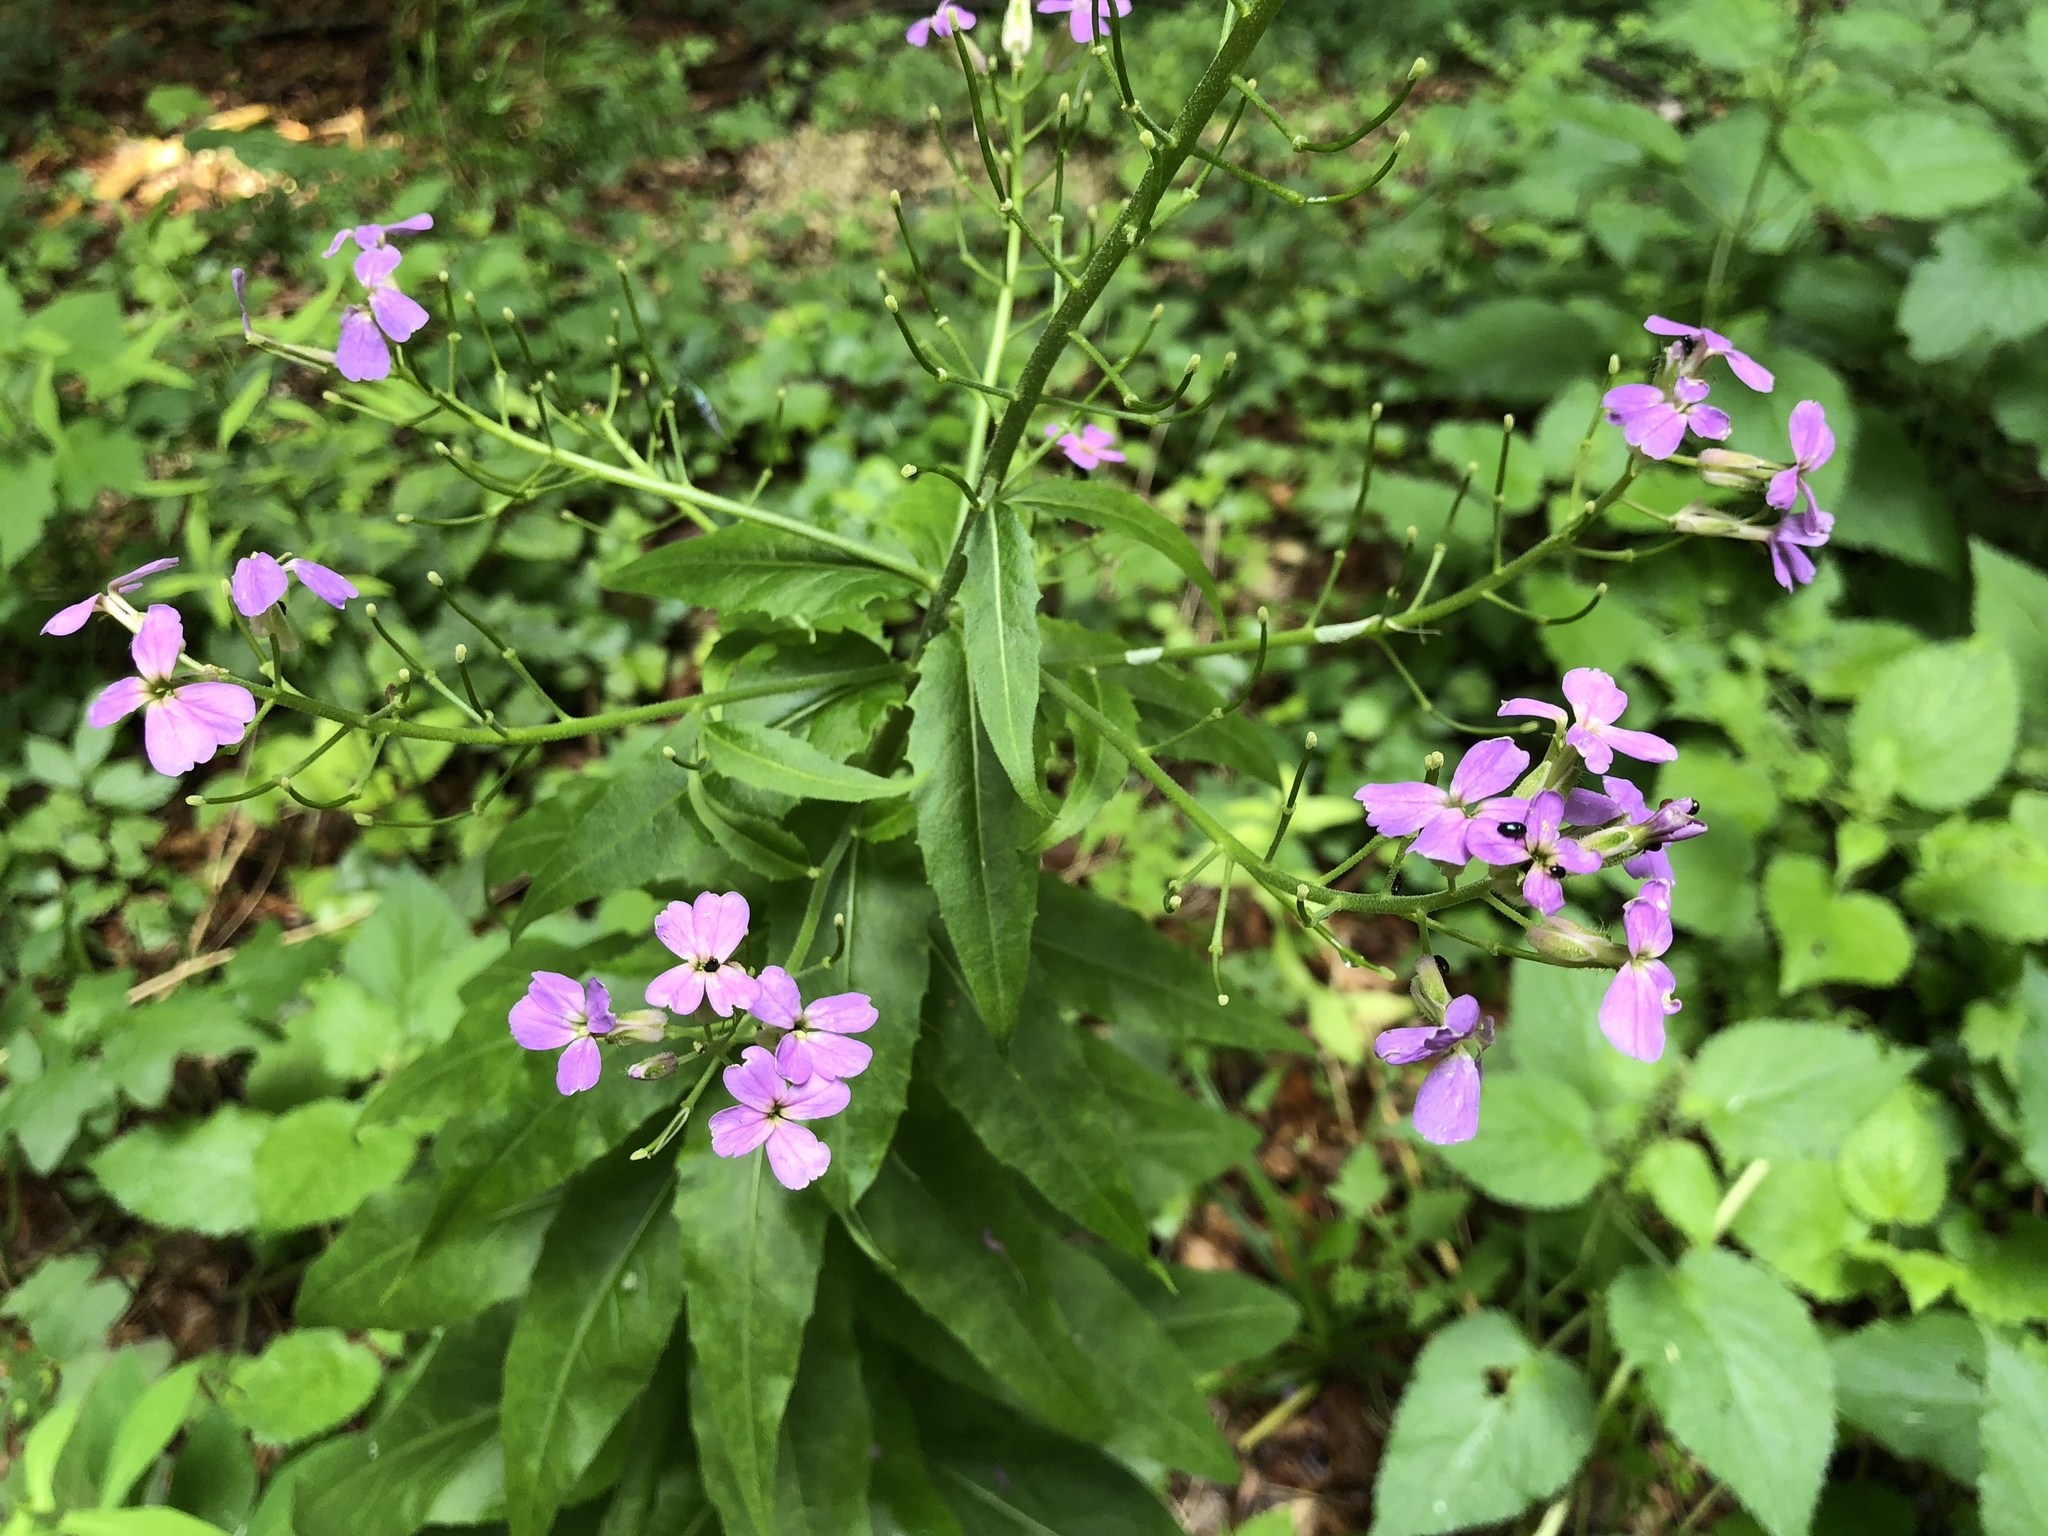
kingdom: Plantae
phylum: Tracheophyta
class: Magnoliopsida
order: Brassicales
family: Brassicaceae
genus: Hesperis
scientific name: Hesperis matronalis
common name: Dame's-violet
